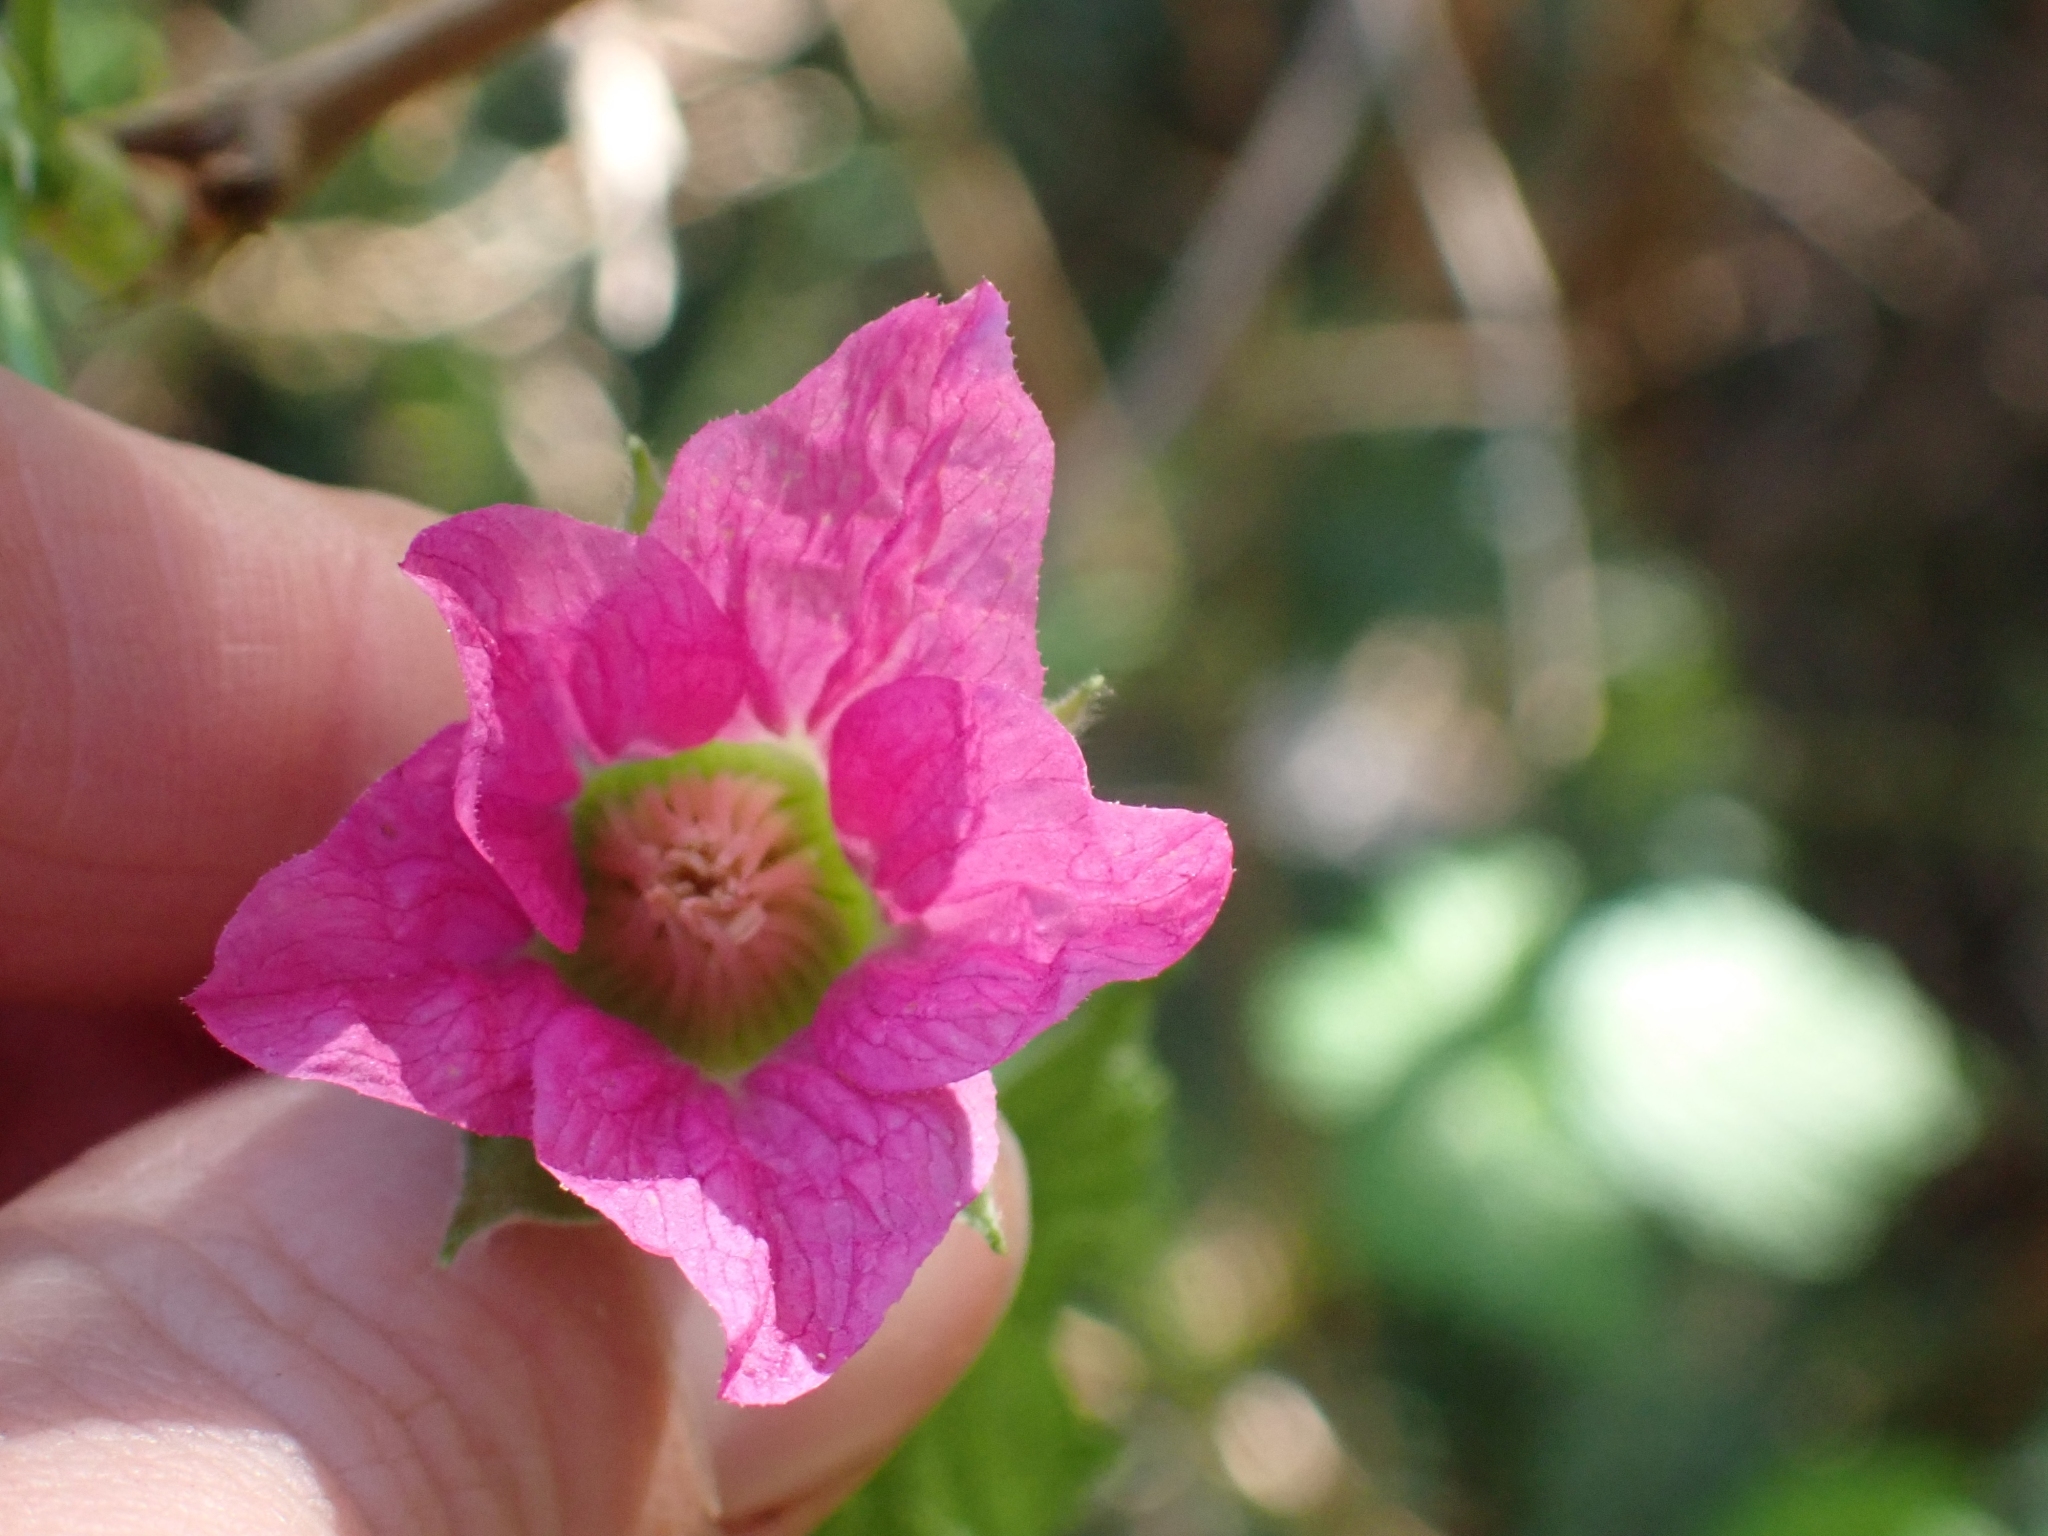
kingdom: Plantae
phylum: Tracheophyta
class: Magnoliopsida
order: Rosales
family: Rosaceae
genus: Rubus
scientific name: Rubus spectabilis
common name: Salmonberry
